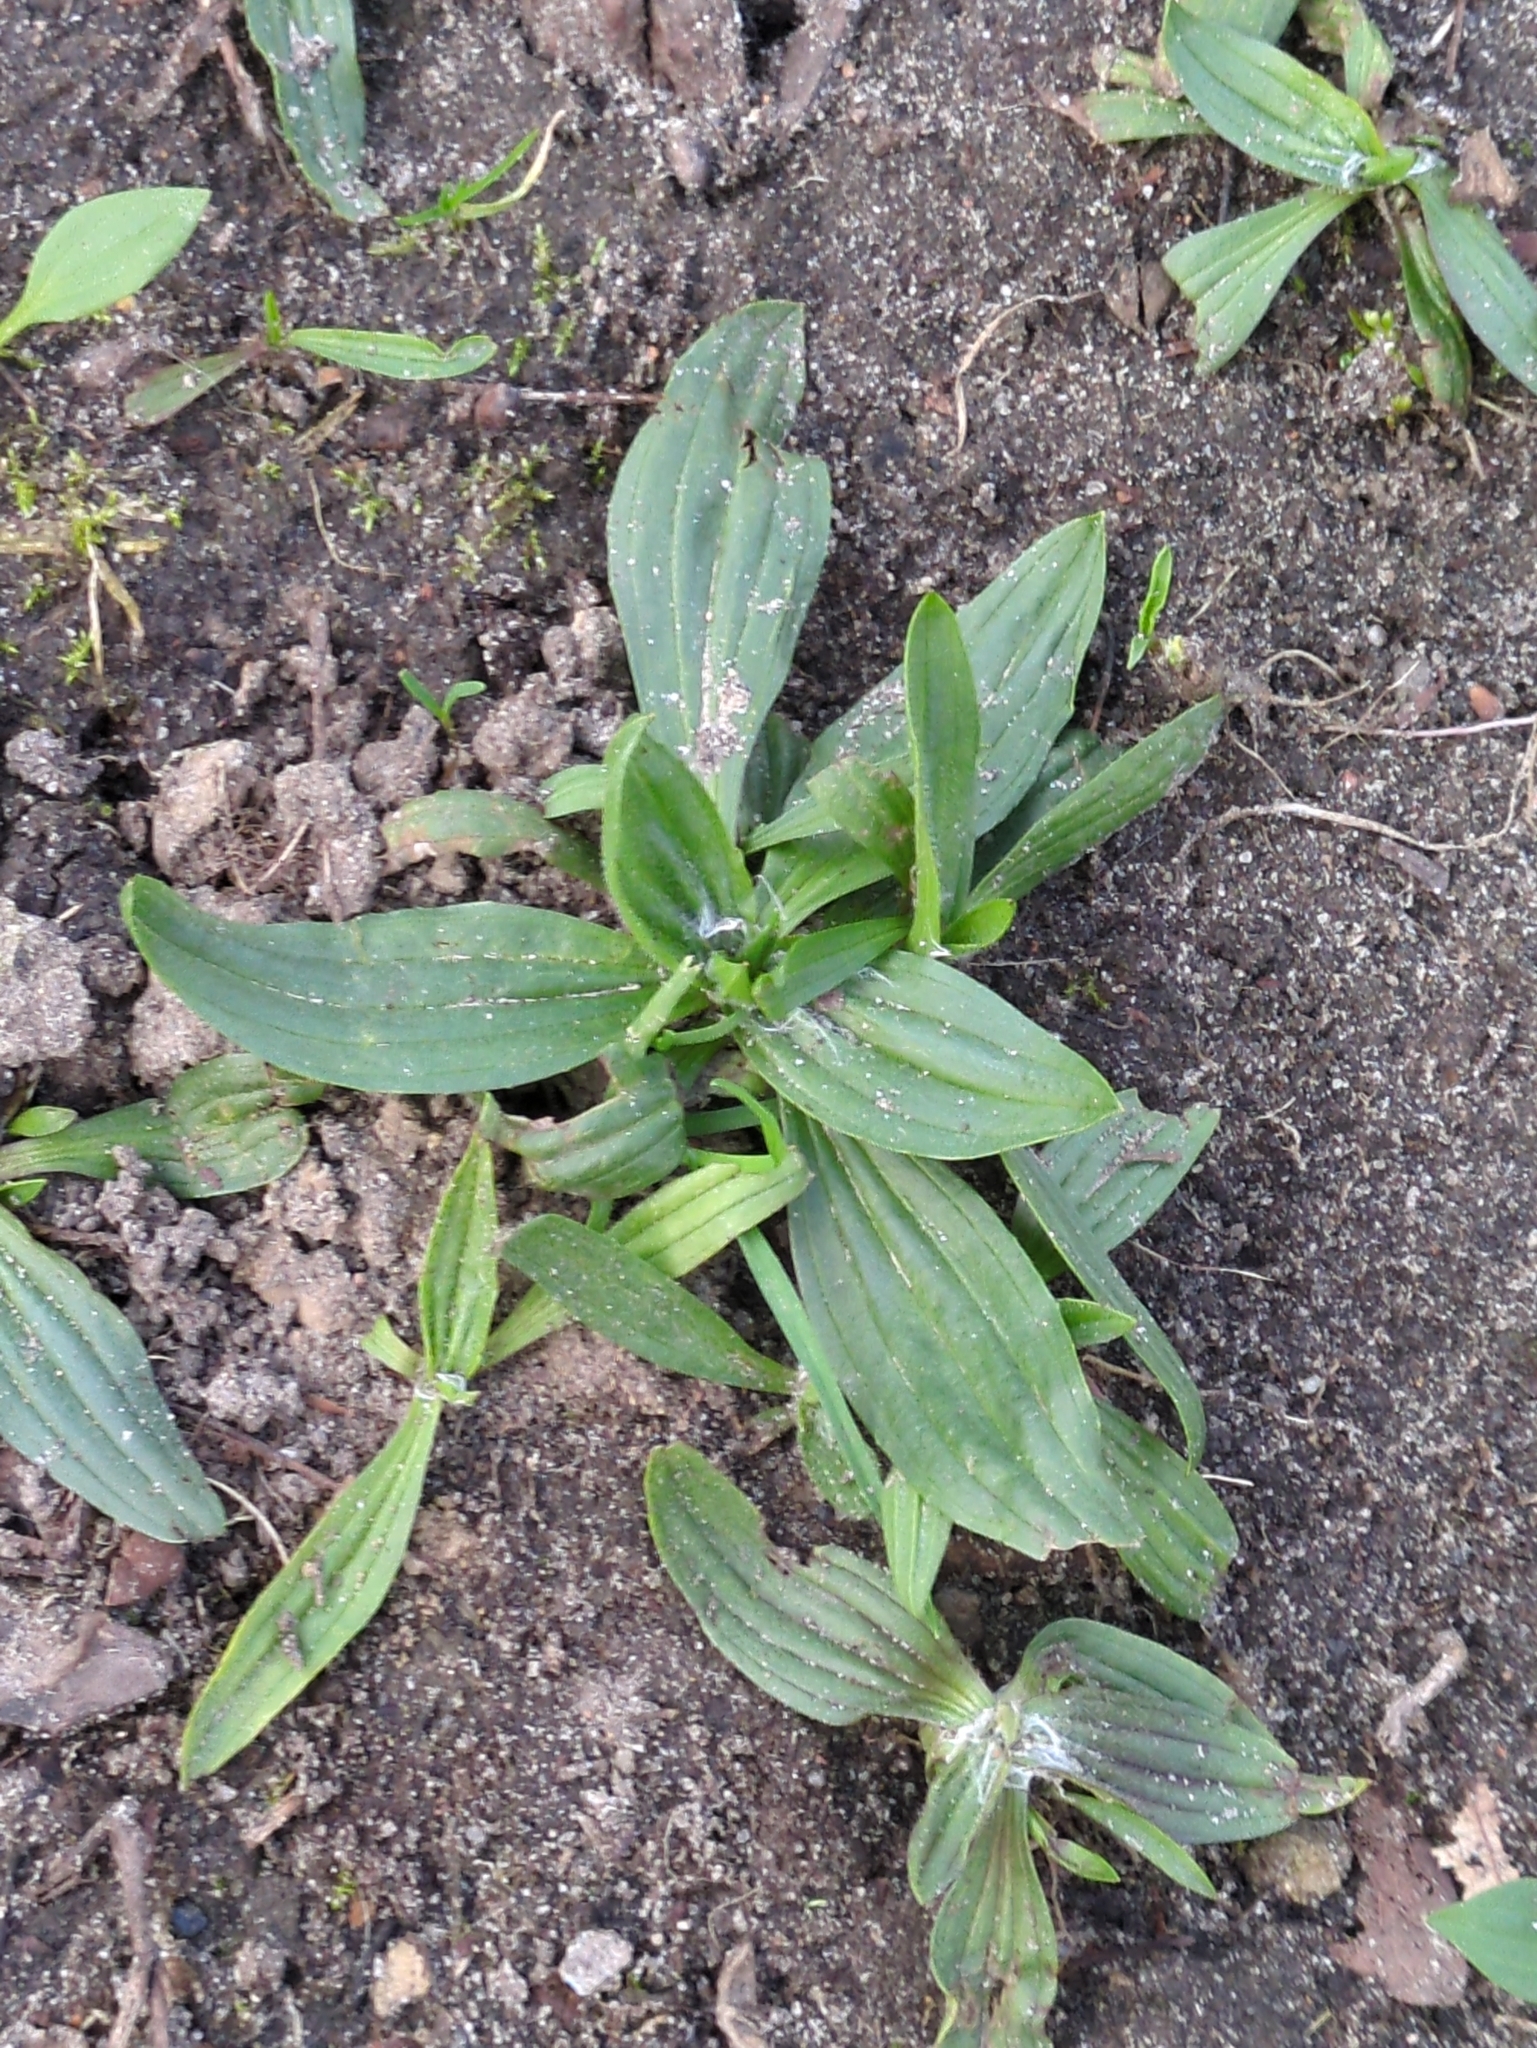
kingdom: Plantae
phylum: Tracheophyta
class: Magnoliopsida
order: Lamiales
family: Plantaginaceae
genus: Plantago
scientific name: Plantago lanceolata
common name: Ribwort plantain
